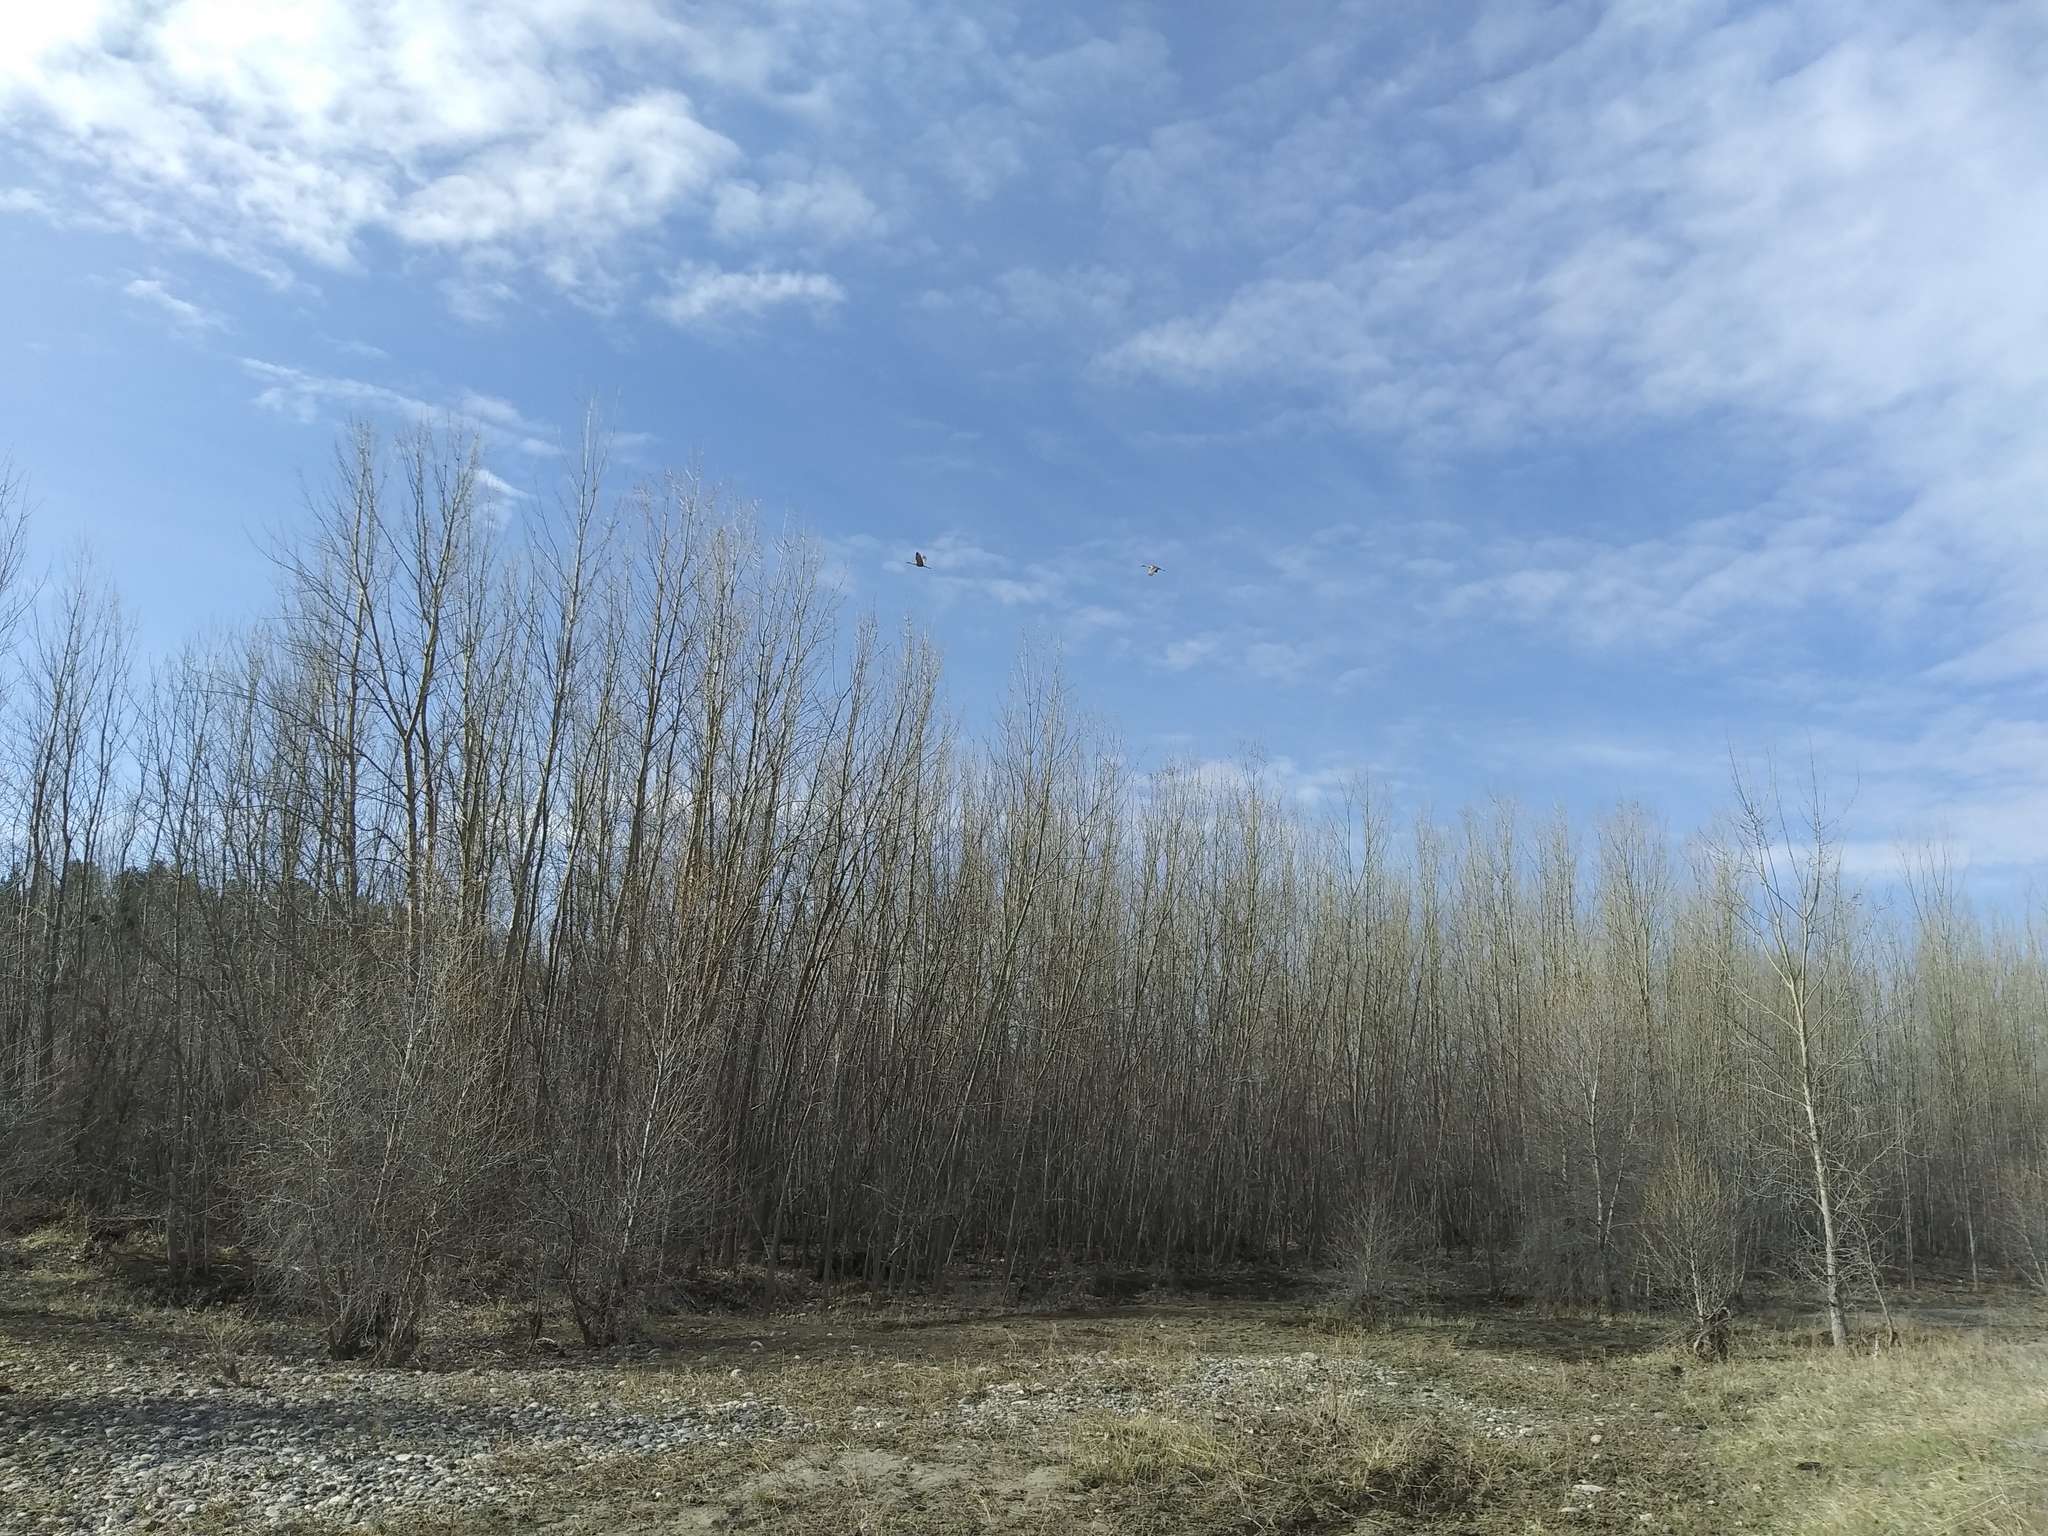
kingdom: Animalia
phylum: Chordata
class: Aves
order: Gruiformes
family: Gruidae
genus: Grus
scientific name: Grus canadensis
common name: Sandhill crane
